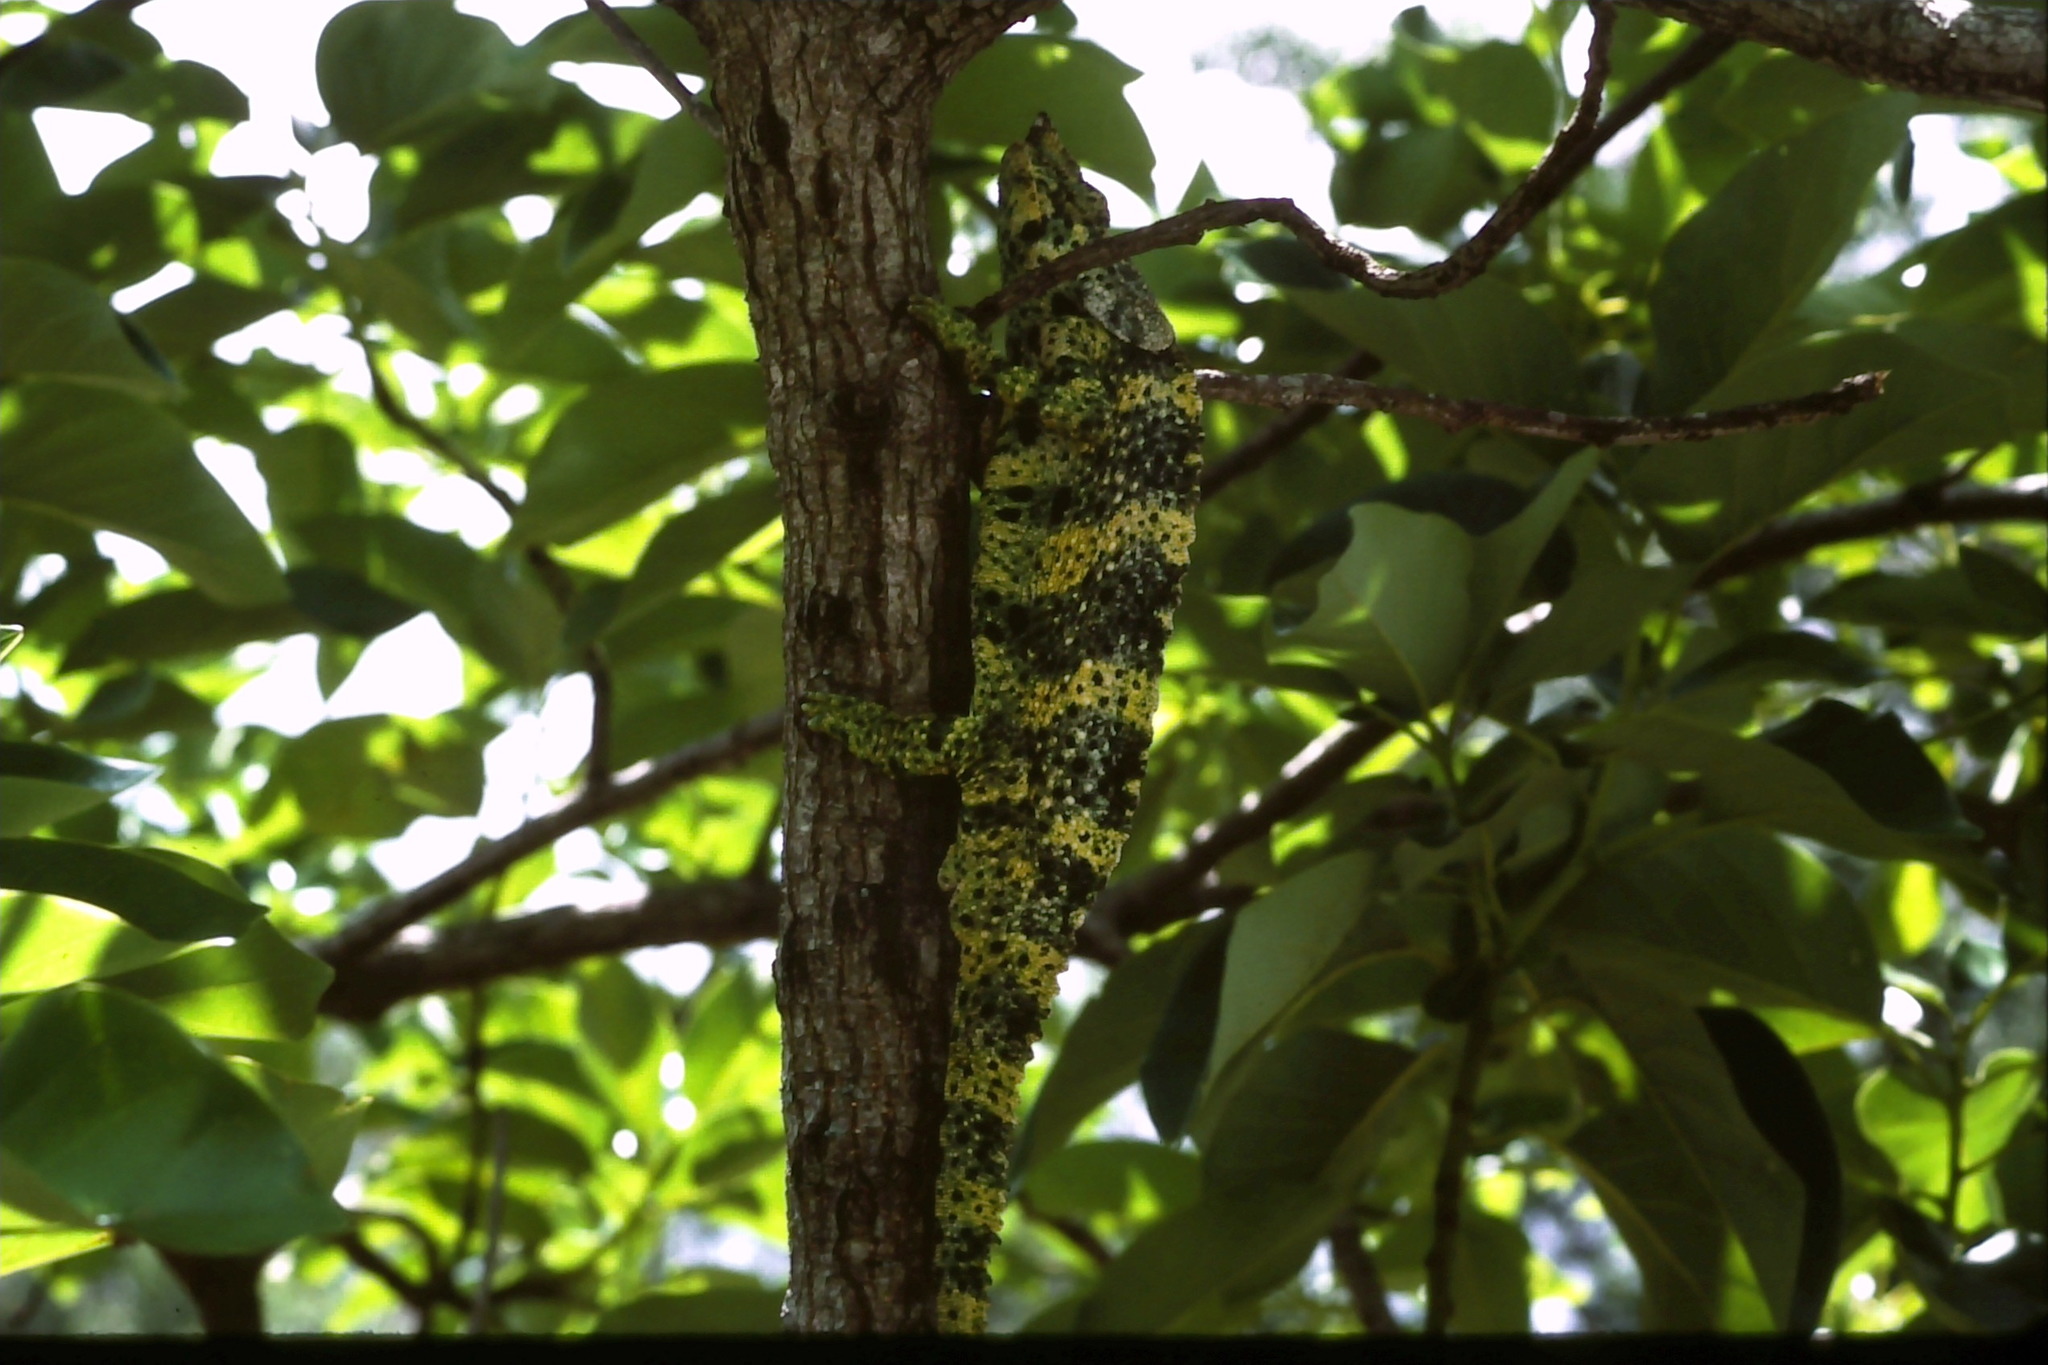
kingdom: Animalia
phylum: Chordata
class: Squamata
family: Chamaeleonidae
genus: Trioceros
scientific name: Trioceros melleri
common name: Meller's chameleon
